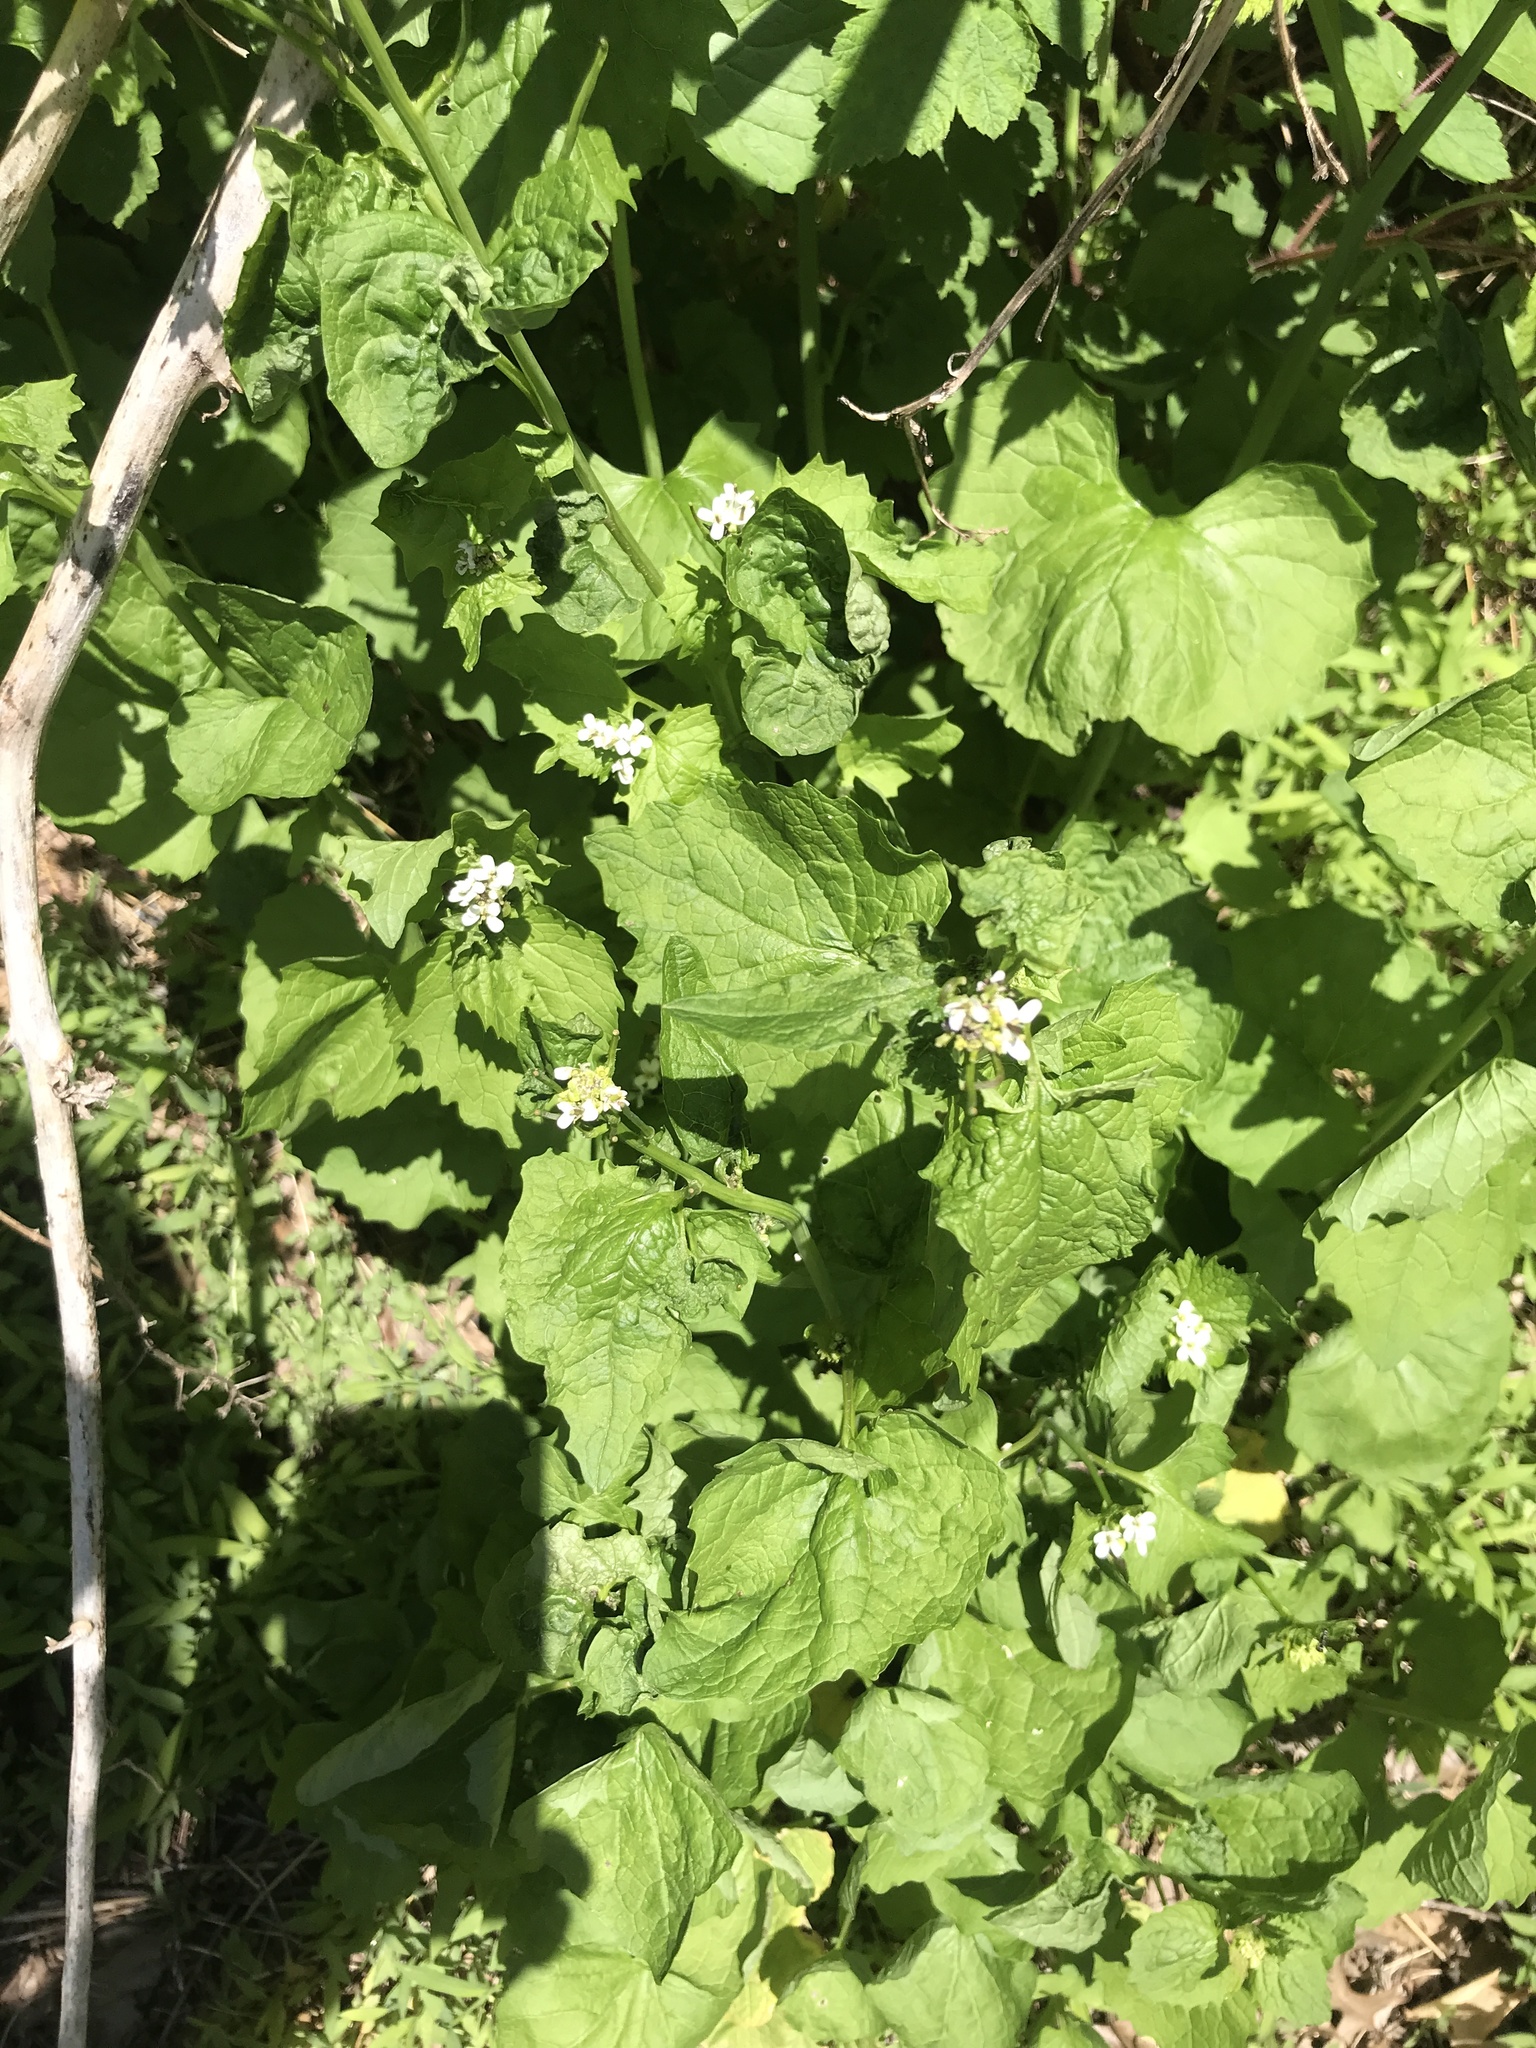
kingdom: Plantae
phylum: Tracheophyta
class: Magnoliopsida
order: Brassicales
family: Brassicaceae
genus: Alliaria
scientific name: Alliaria petiolata
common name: Garlic mustard
